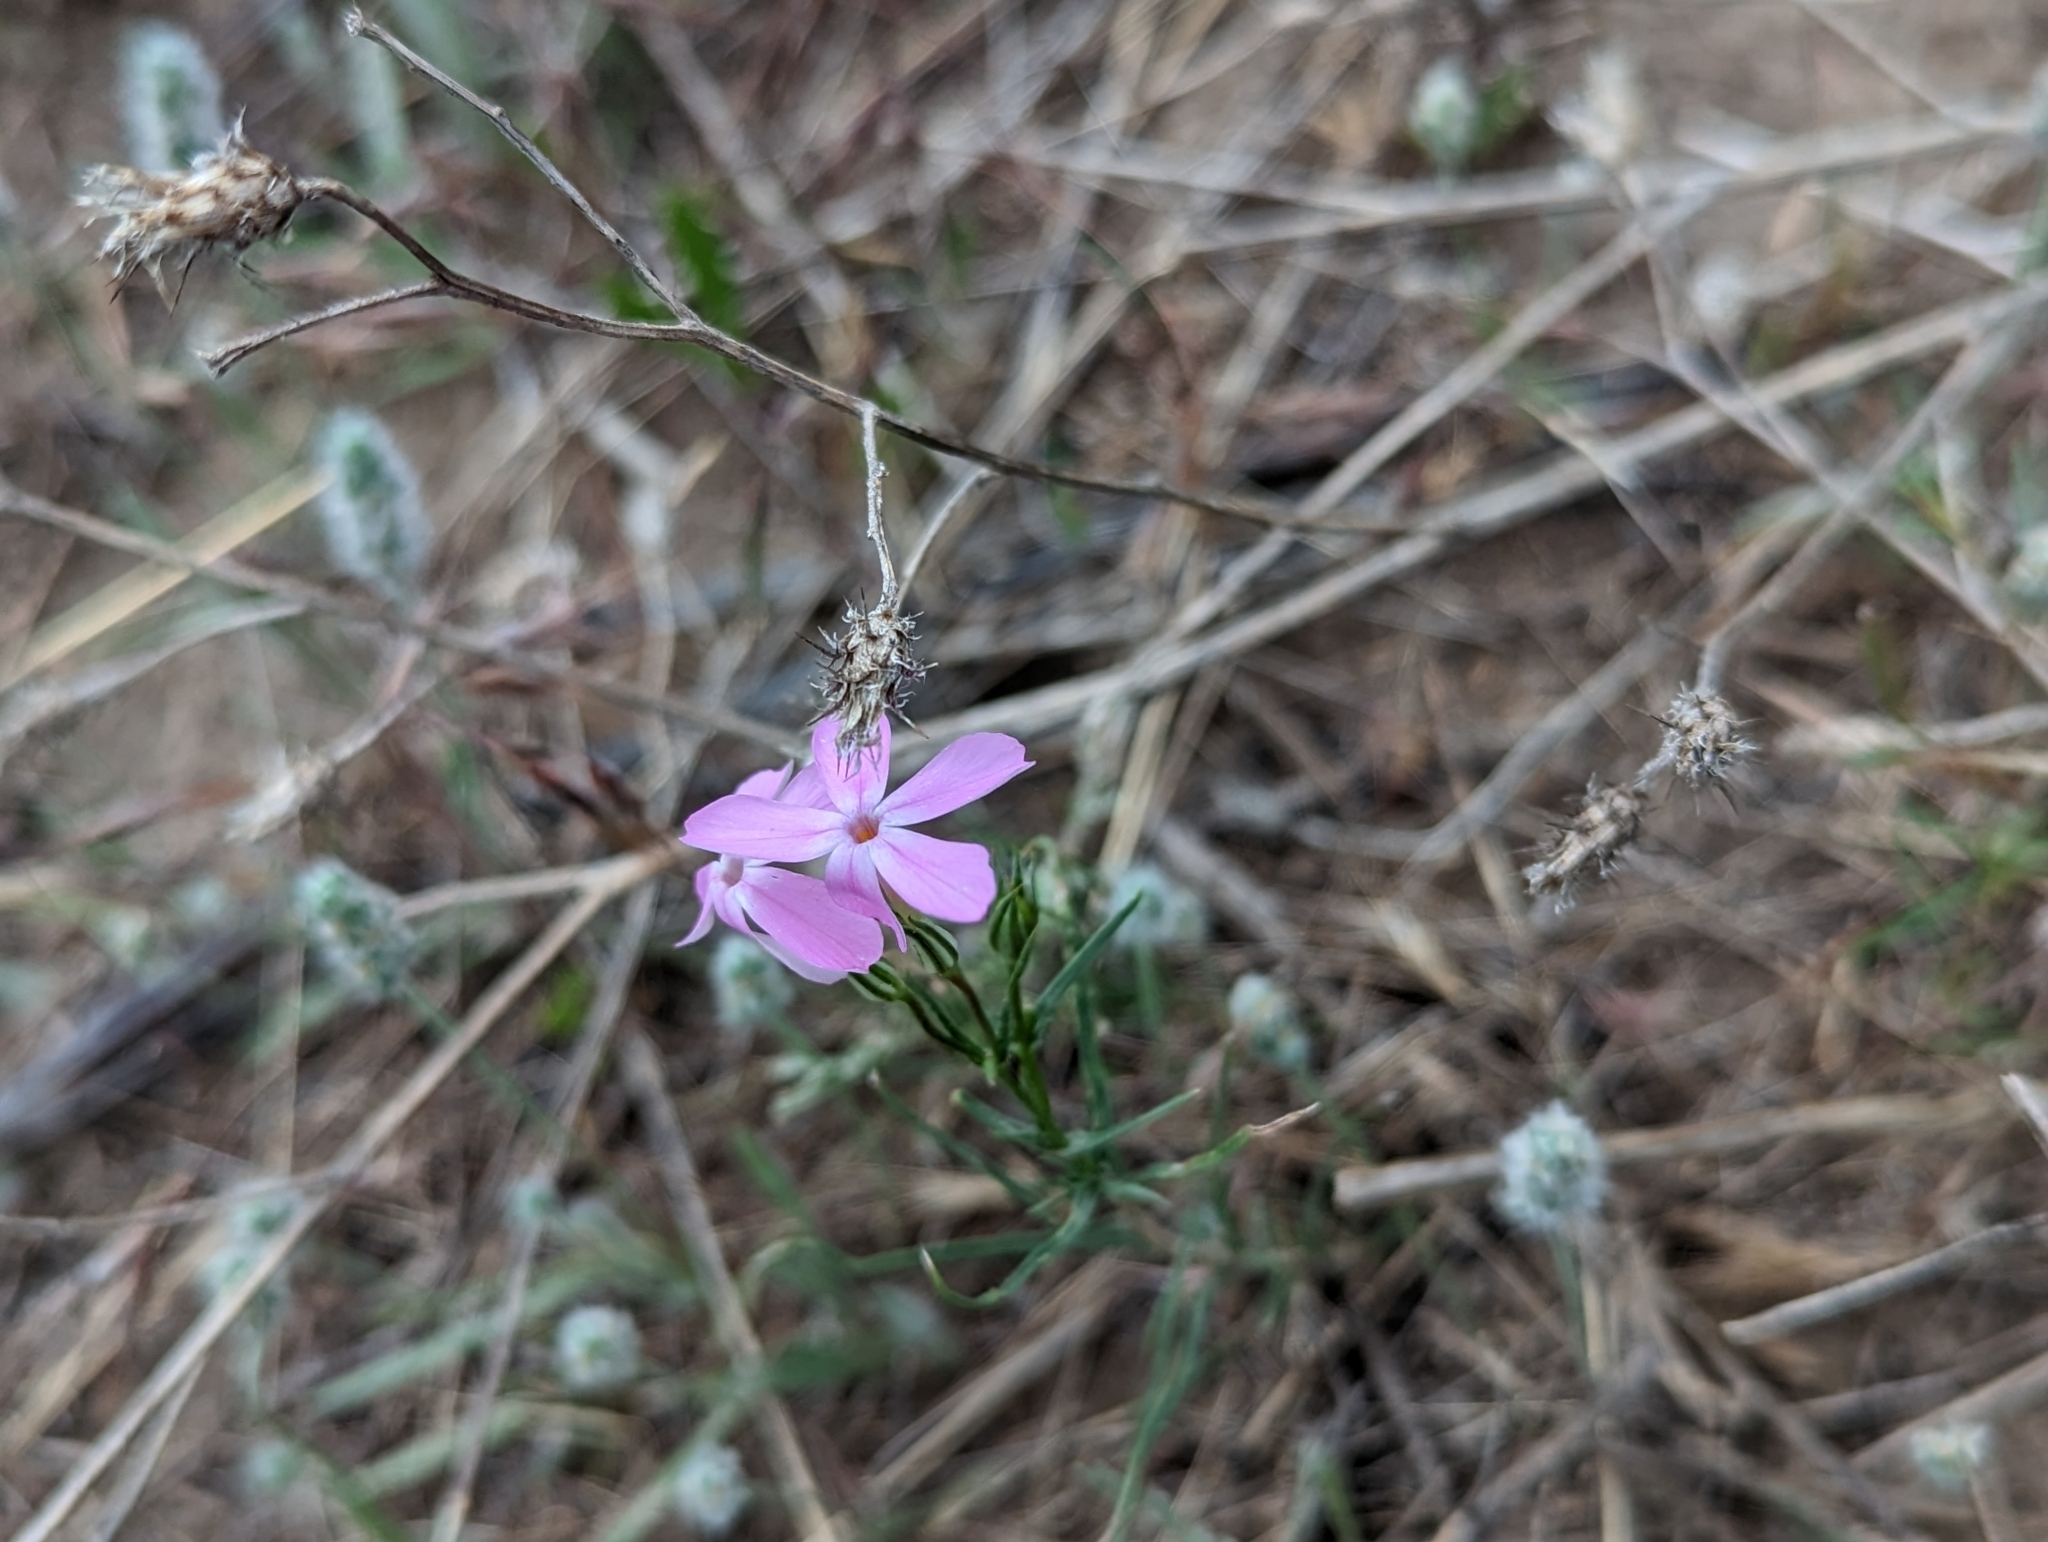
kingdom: Plantae
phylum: Tracheophyta
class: Magnoliopsida
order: Ericales
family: Polemoniaceae
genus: Phlox
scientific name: Phlox longifolia
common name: Longleaf phlox
